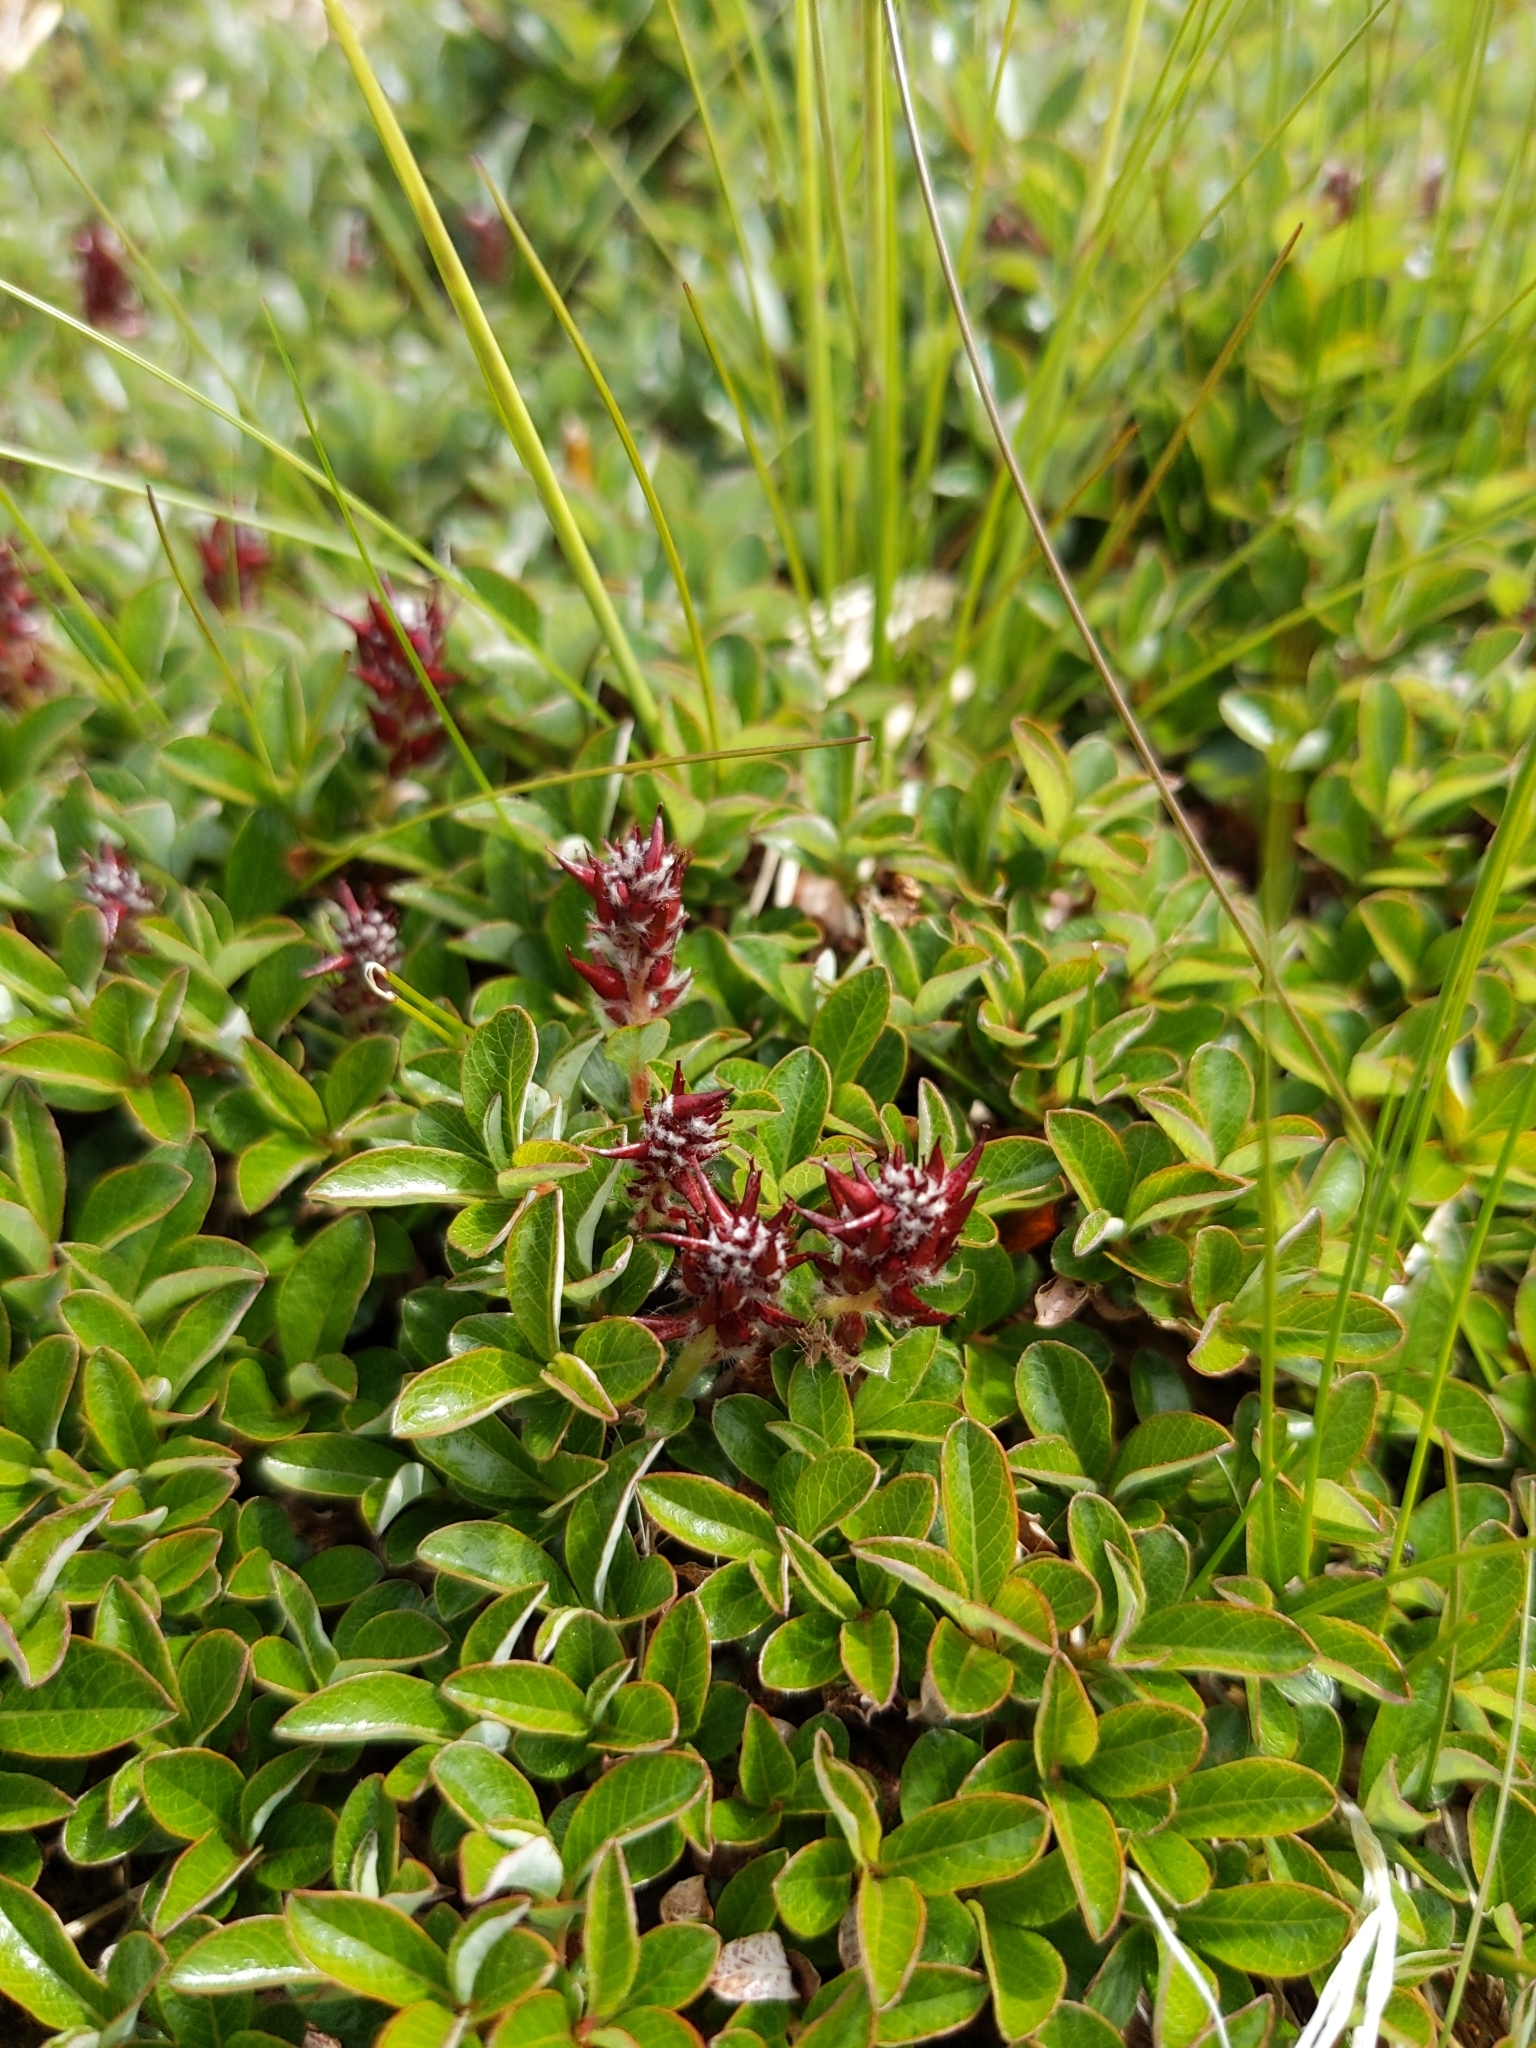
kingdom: Plantae
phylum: Tracheophyta
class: Magnoliopsida
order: Malpighiales
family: Salicaceae
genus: Salix
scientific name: Salix uva-ursi
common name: Bearberry willow
